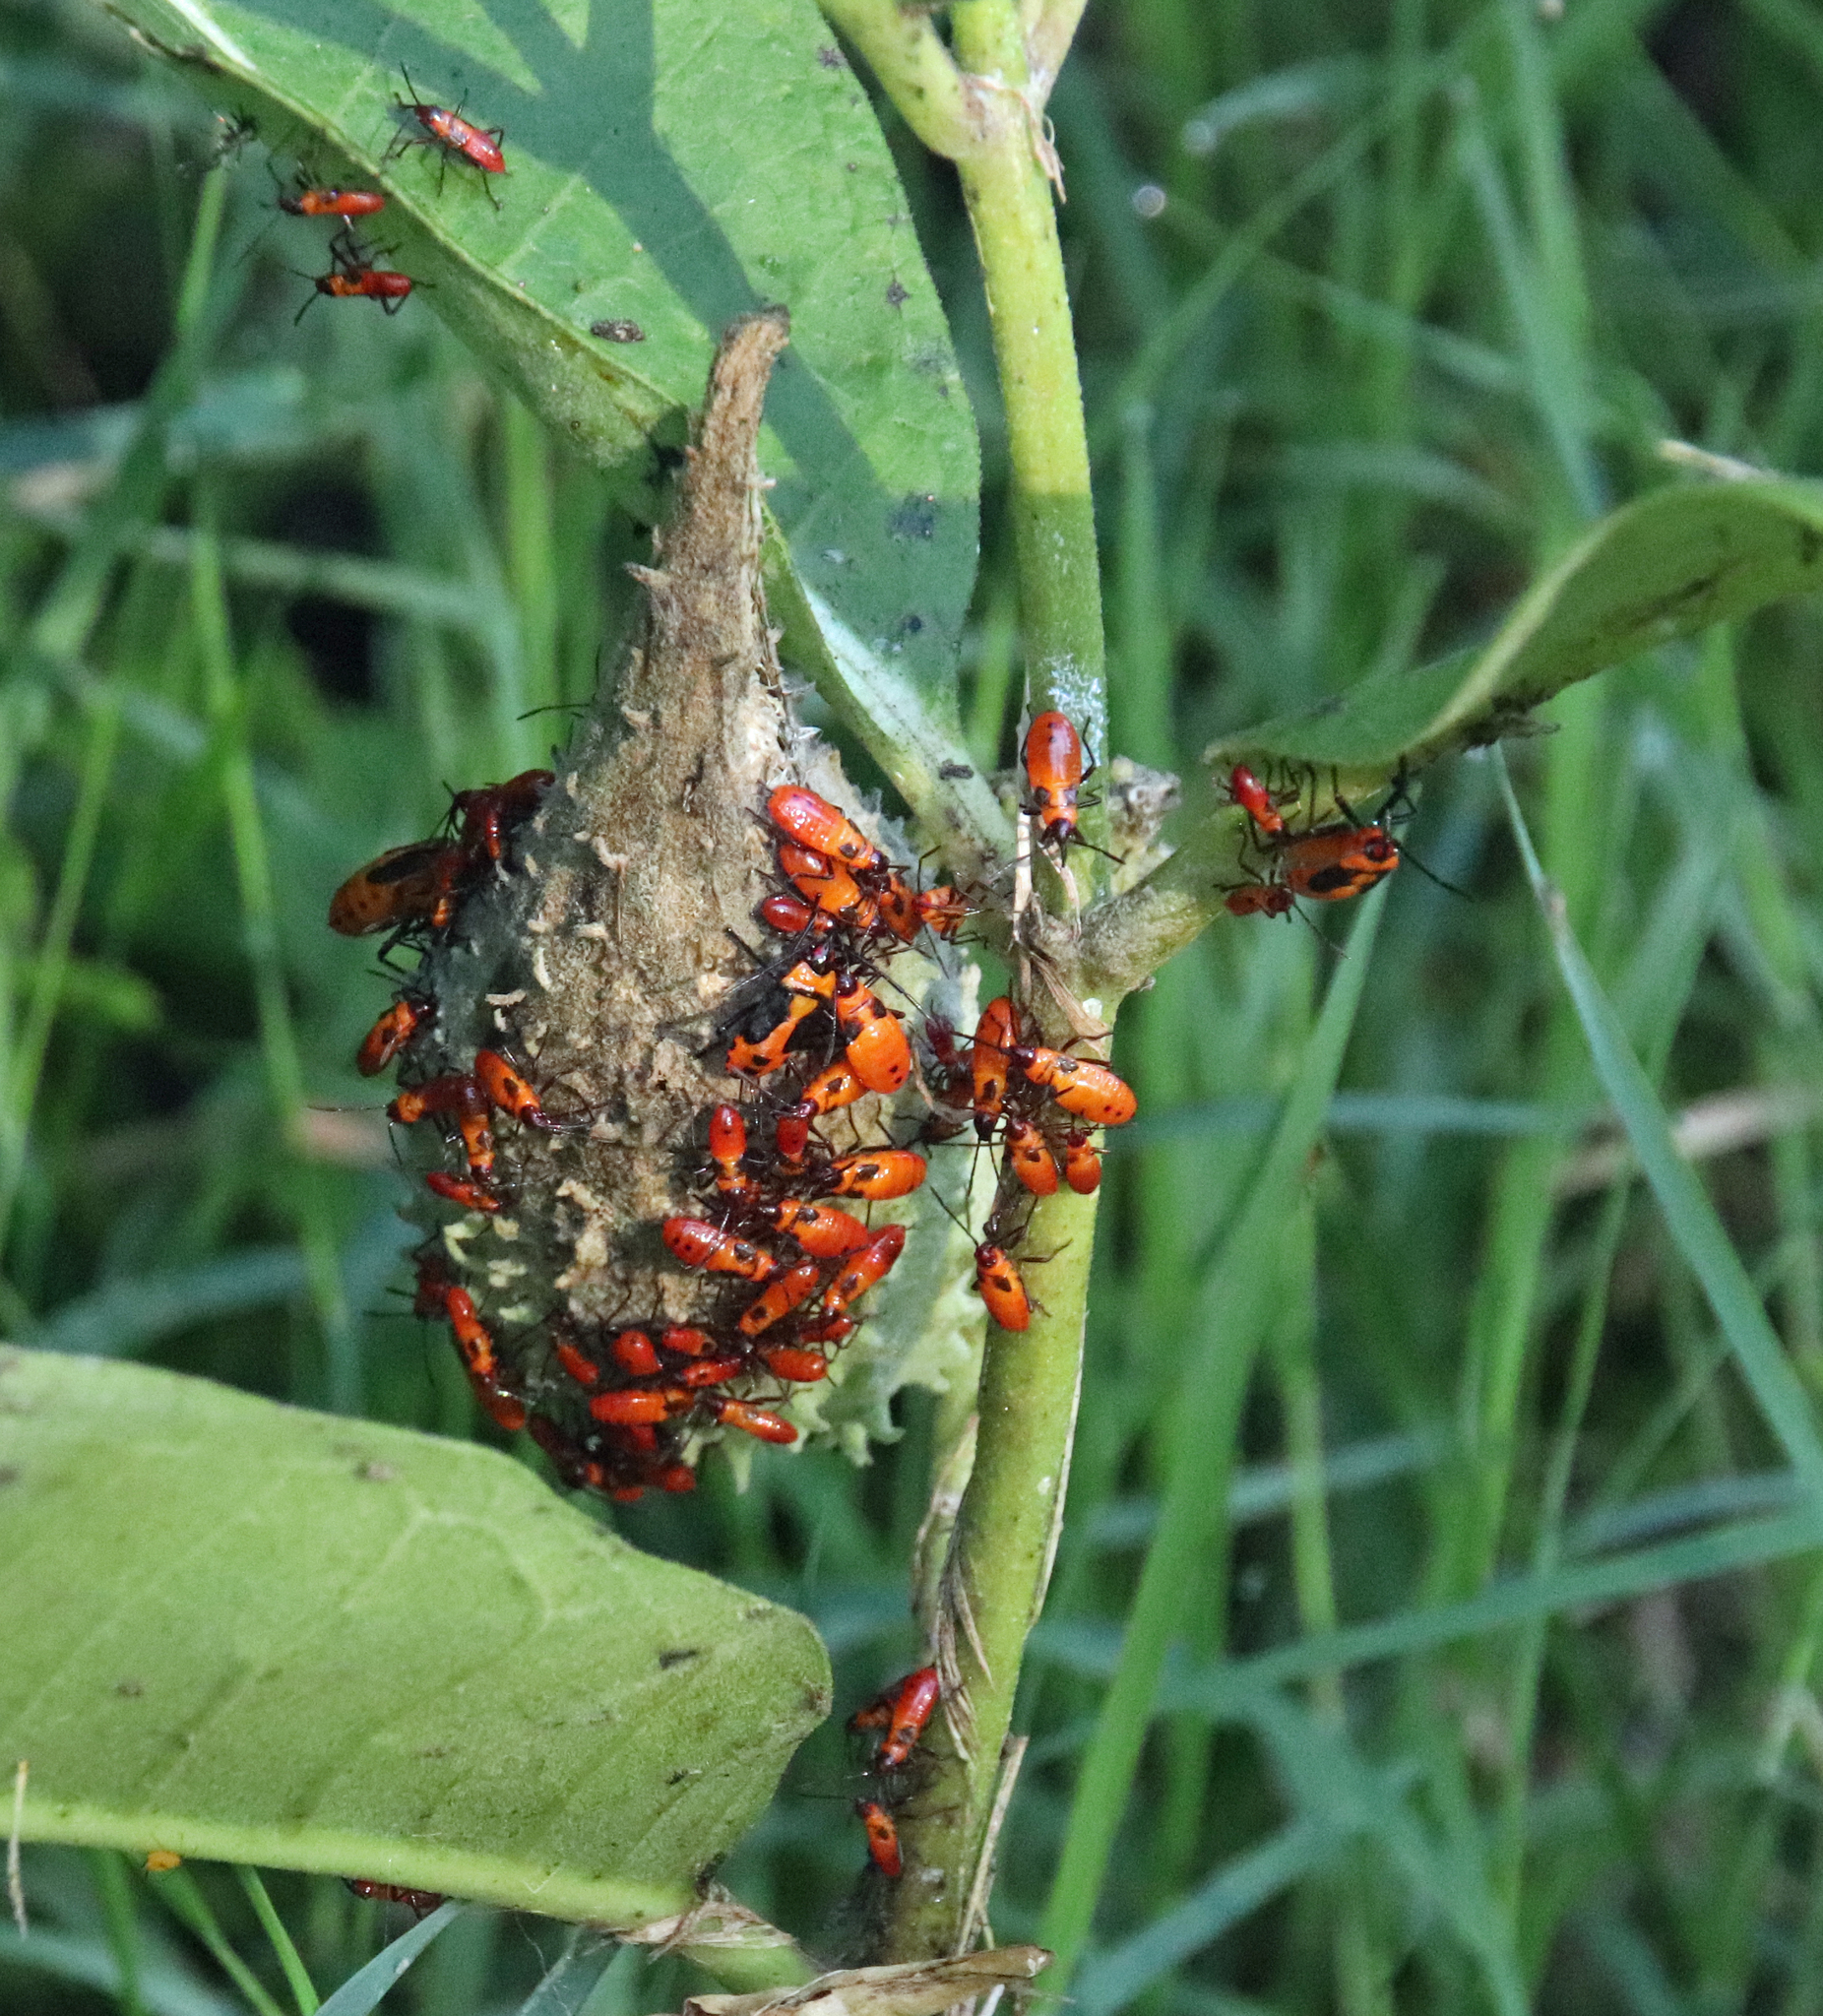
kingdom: Animalia
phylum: Arthropoda
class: Insecta
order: Hemiptera
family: Lygaeidae
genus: Oncopeltus
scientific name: Oncopeltus fasciatus
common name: Large milkweed bug
